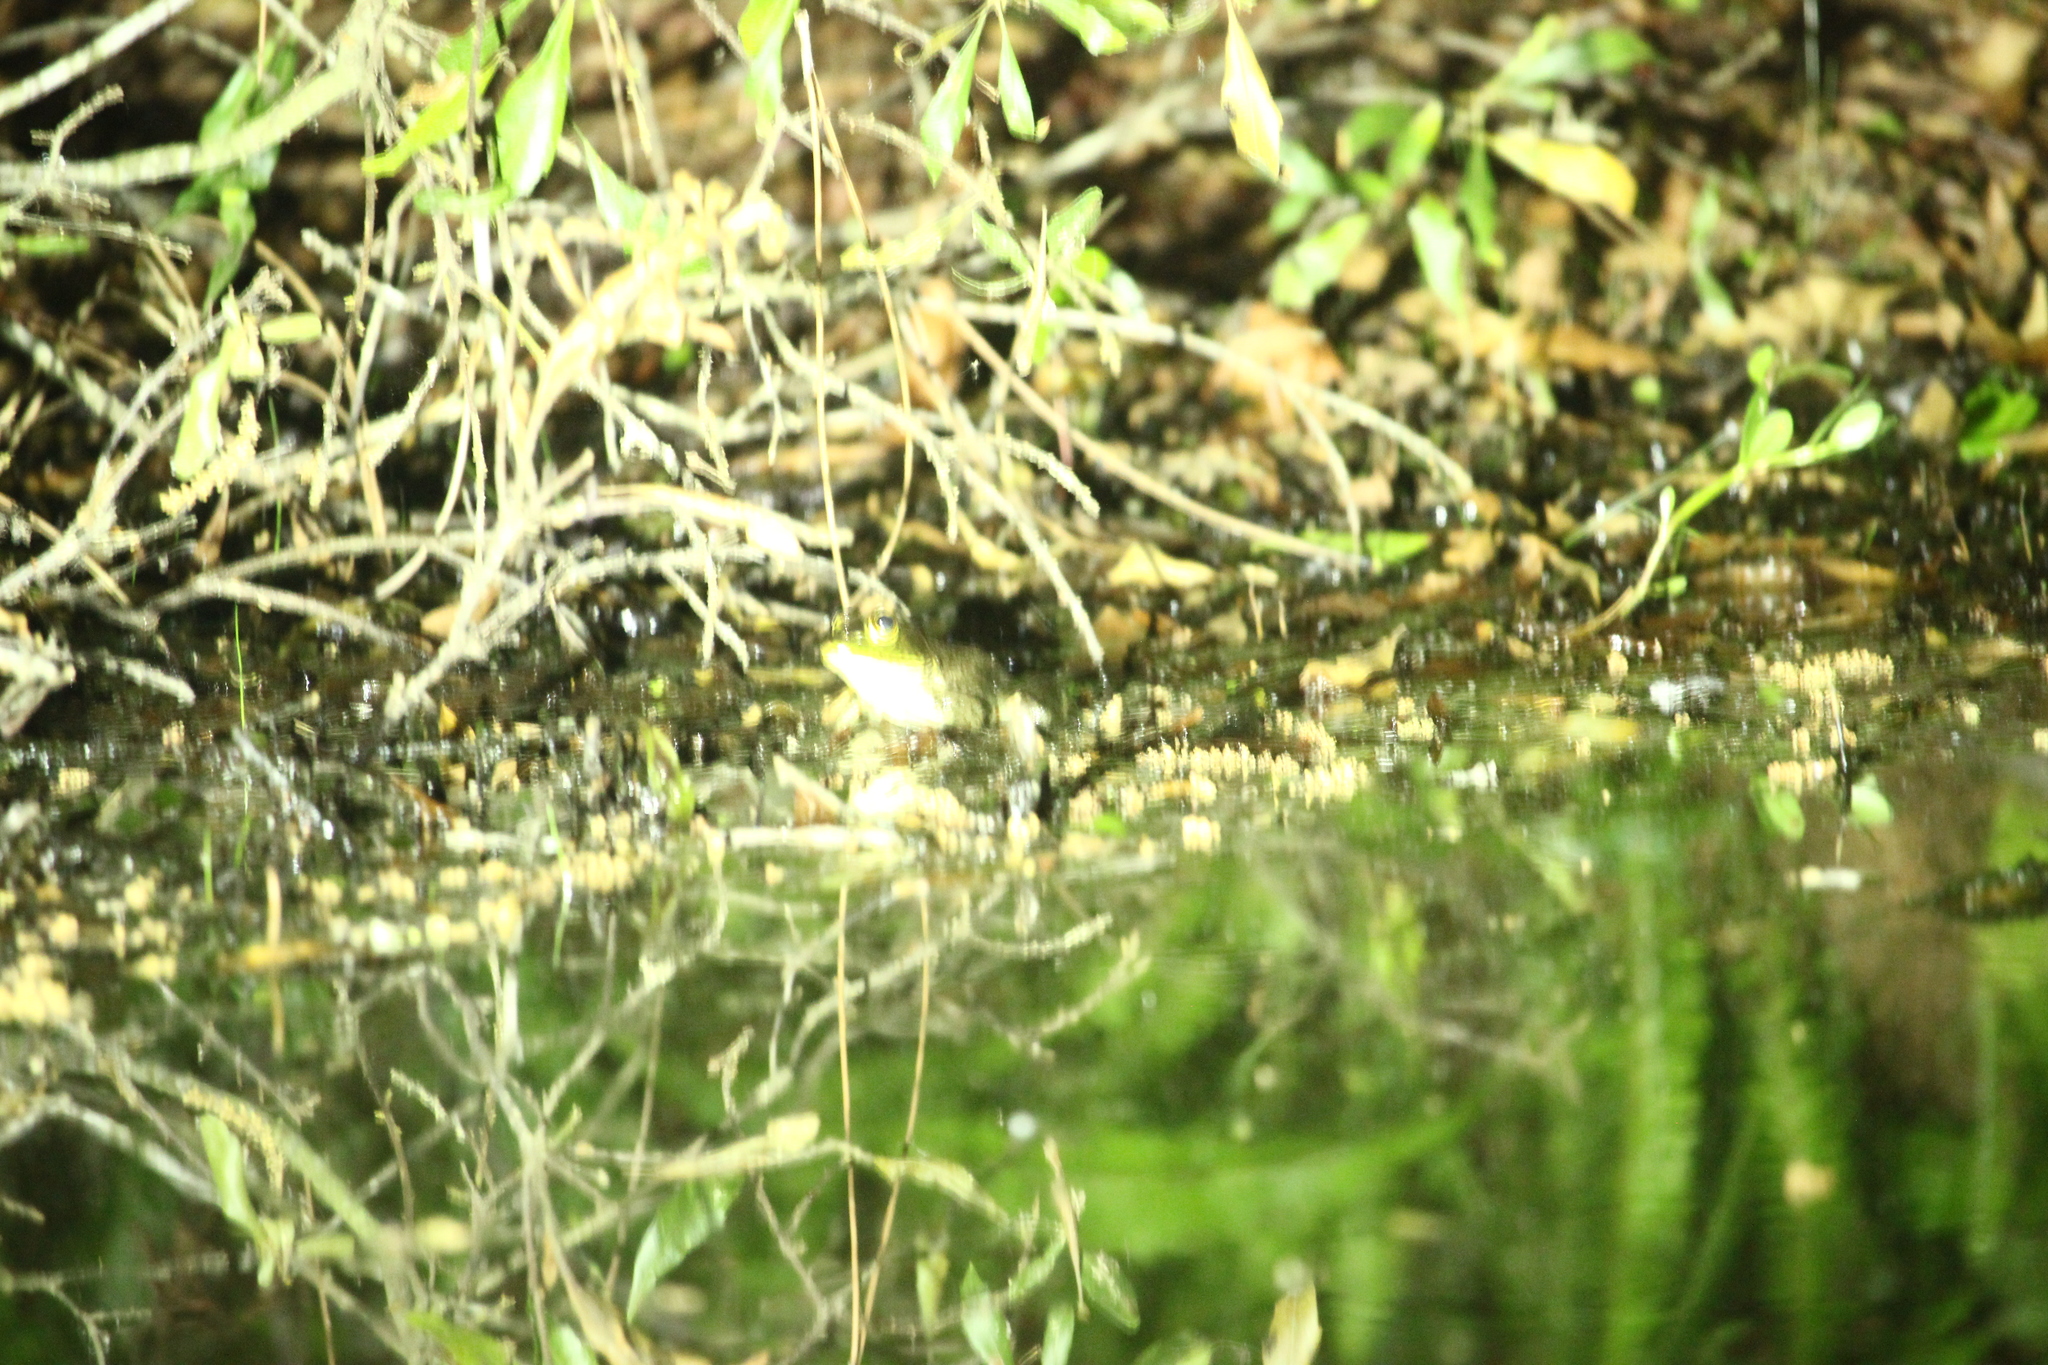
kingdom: Animalia
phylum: Chordata
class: Amphibia
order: Anura
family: Ranidae
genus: Lithobates
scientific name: Lithobates catesbeianus
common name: American bullfrog
